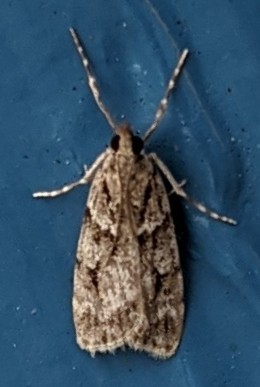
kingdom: Animalia
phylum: Arthropoda
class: Insecta
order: Lepidoptera
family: Crambidae
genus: Scoparia
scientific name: Scoparia biplagialis
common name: Double-striped scoparia moth
